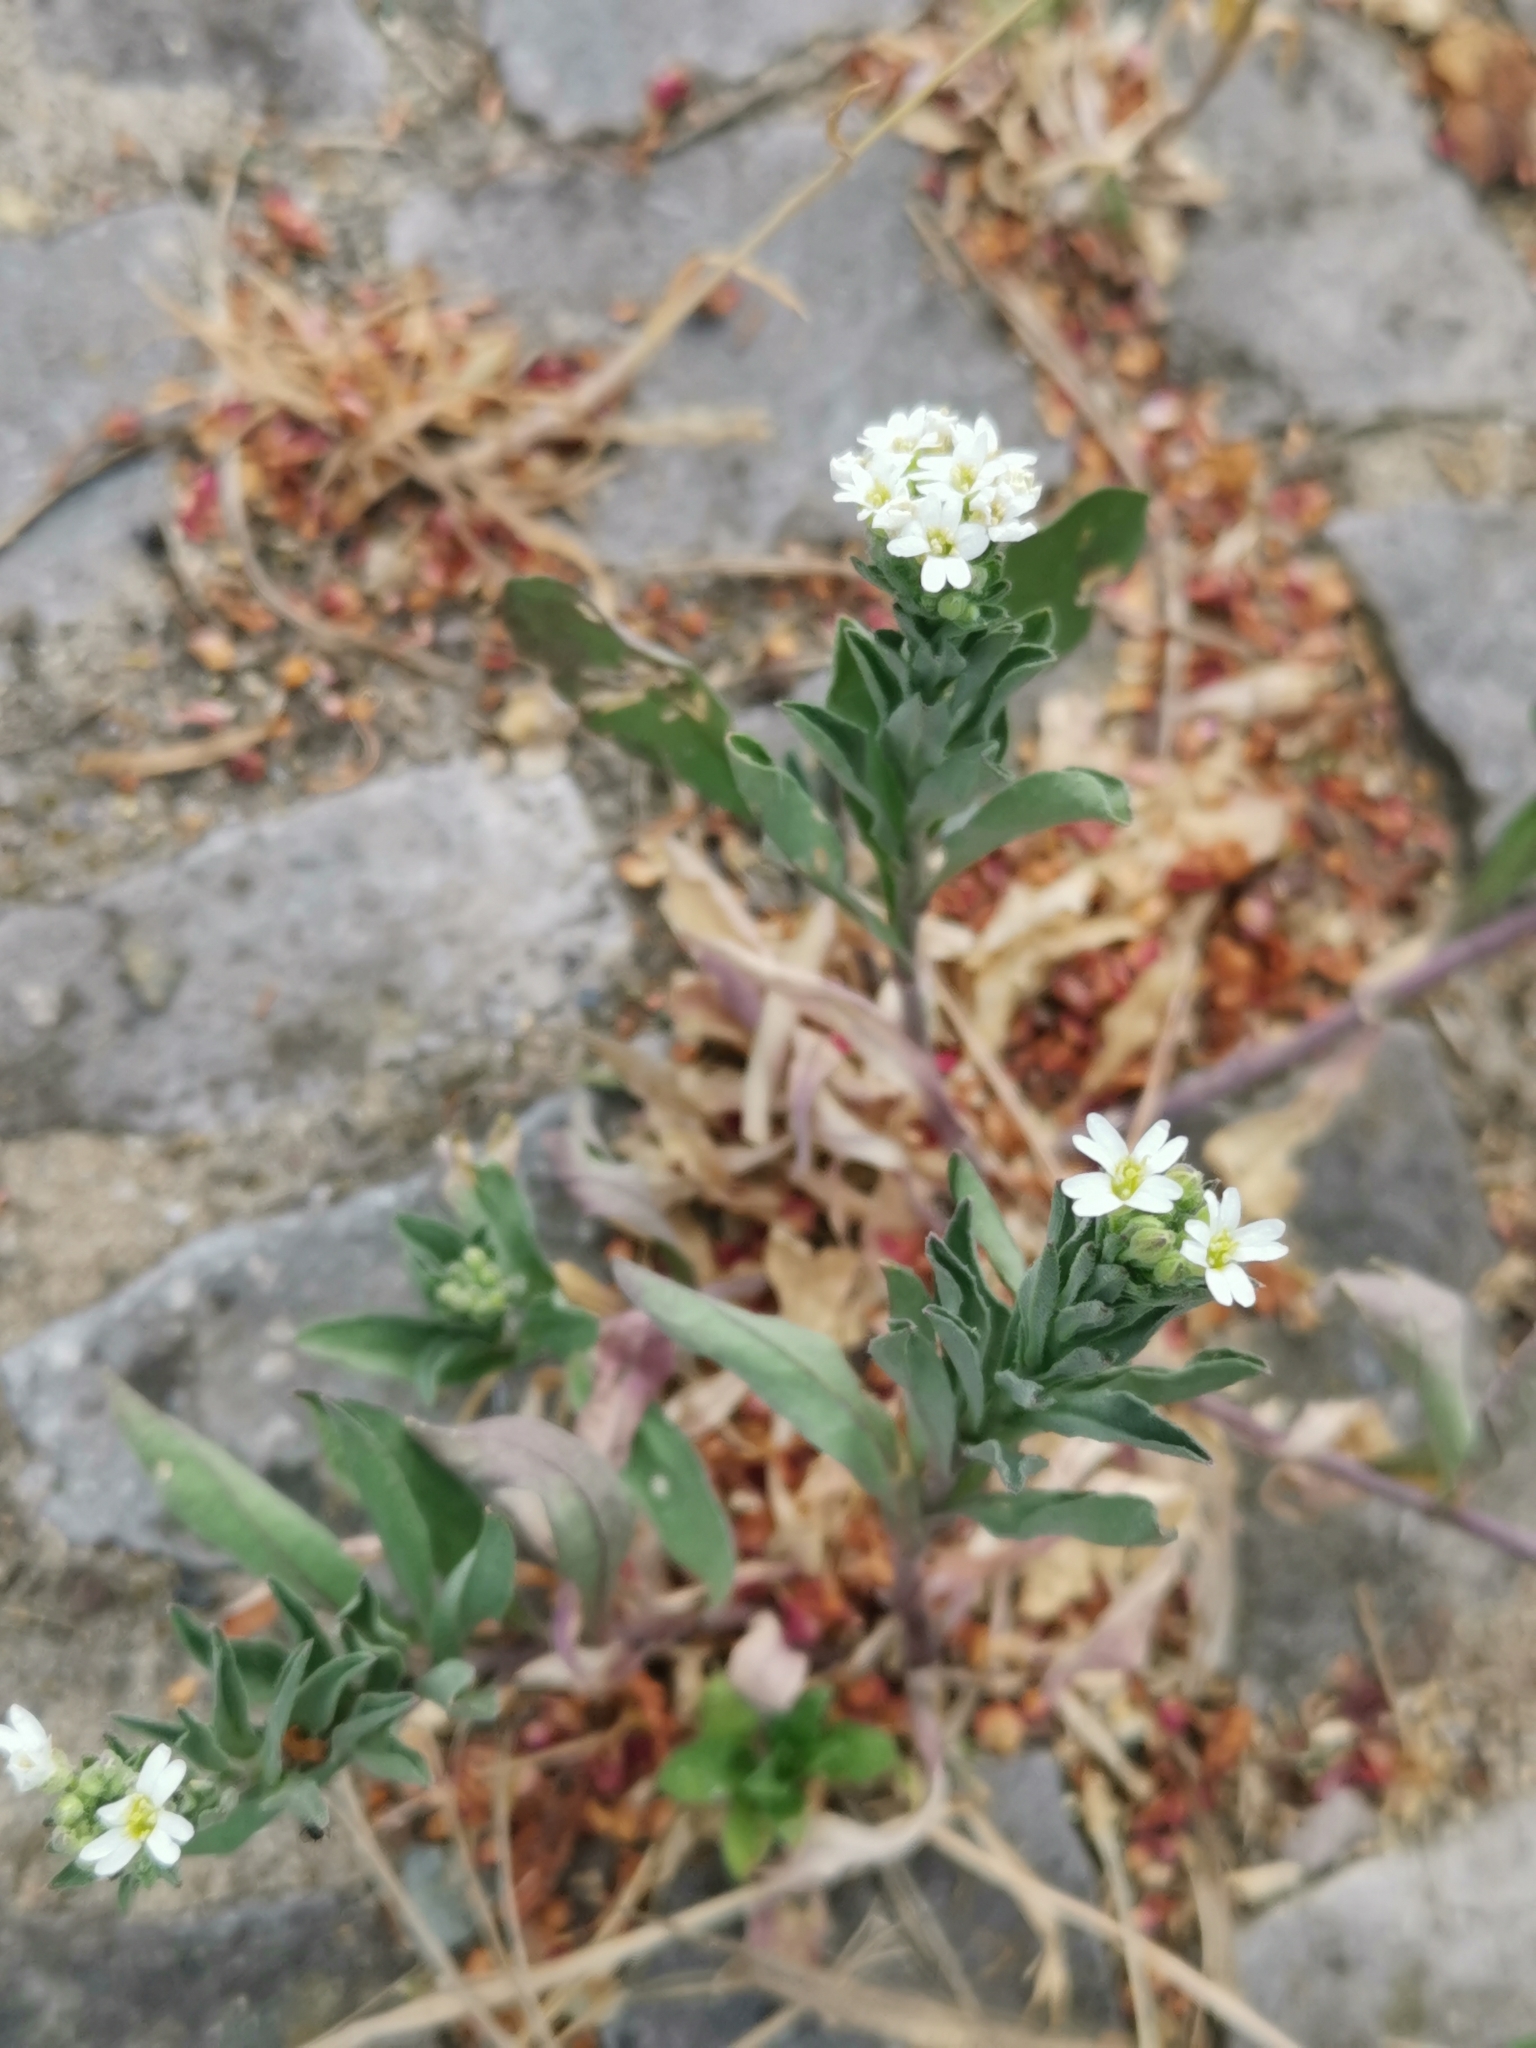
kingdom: Plantae
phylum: Tracheophyta
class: Magnoliopsida
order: Brassicales
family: Brassicaceae
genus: Berteroa
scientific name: Berteroa incana
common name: Hoary alison
